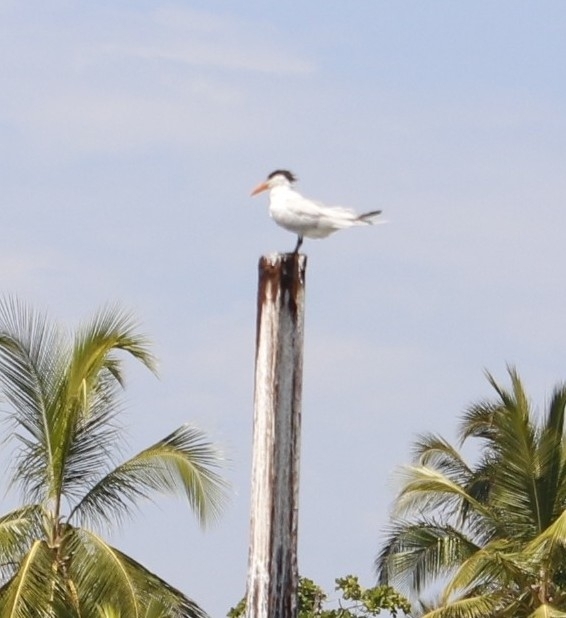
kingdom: Animalia
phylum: Chordata
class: Aves
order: Charadriiformes
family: Laridae
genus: Thalasseus
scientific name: Thalasseus maximus
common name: Royal tern
